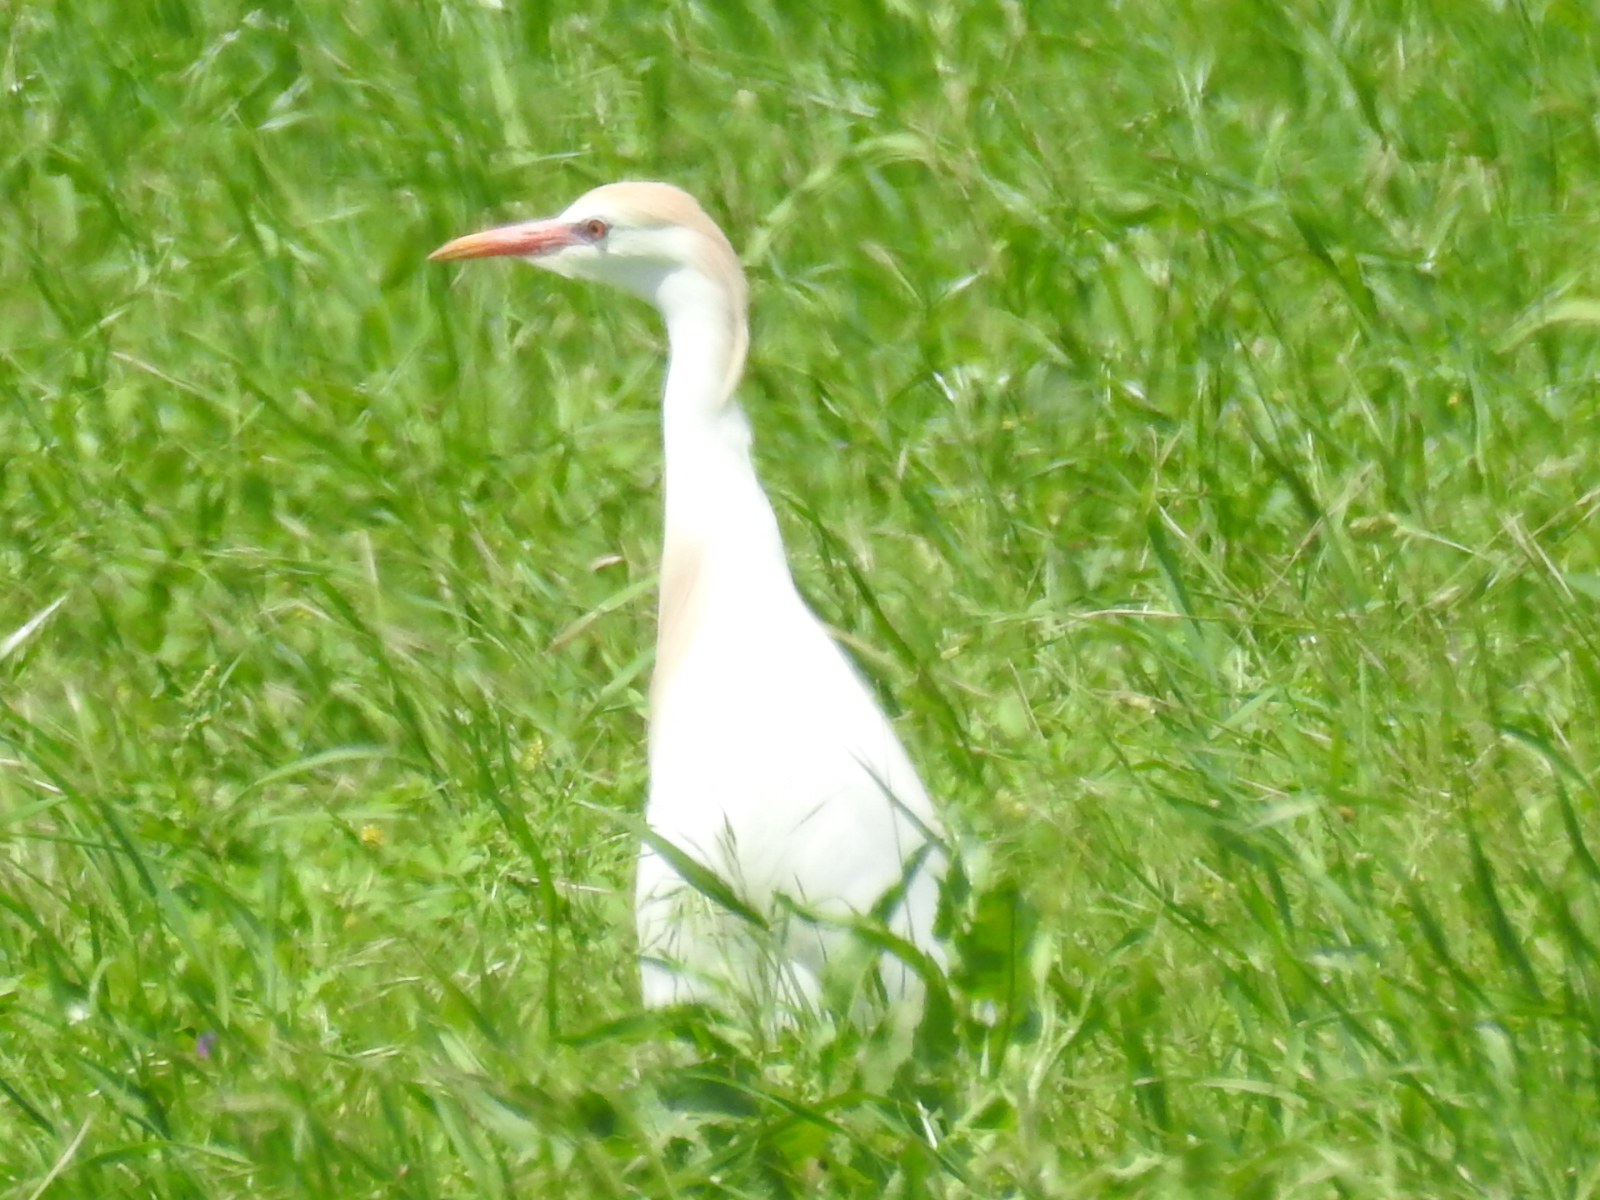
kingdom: Animalia
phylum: Chordata
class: Aves
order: Pelecaniformes
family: Ardeidae
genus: Bubulcus
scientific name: Bubulcus ibis
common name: Cattle egret
